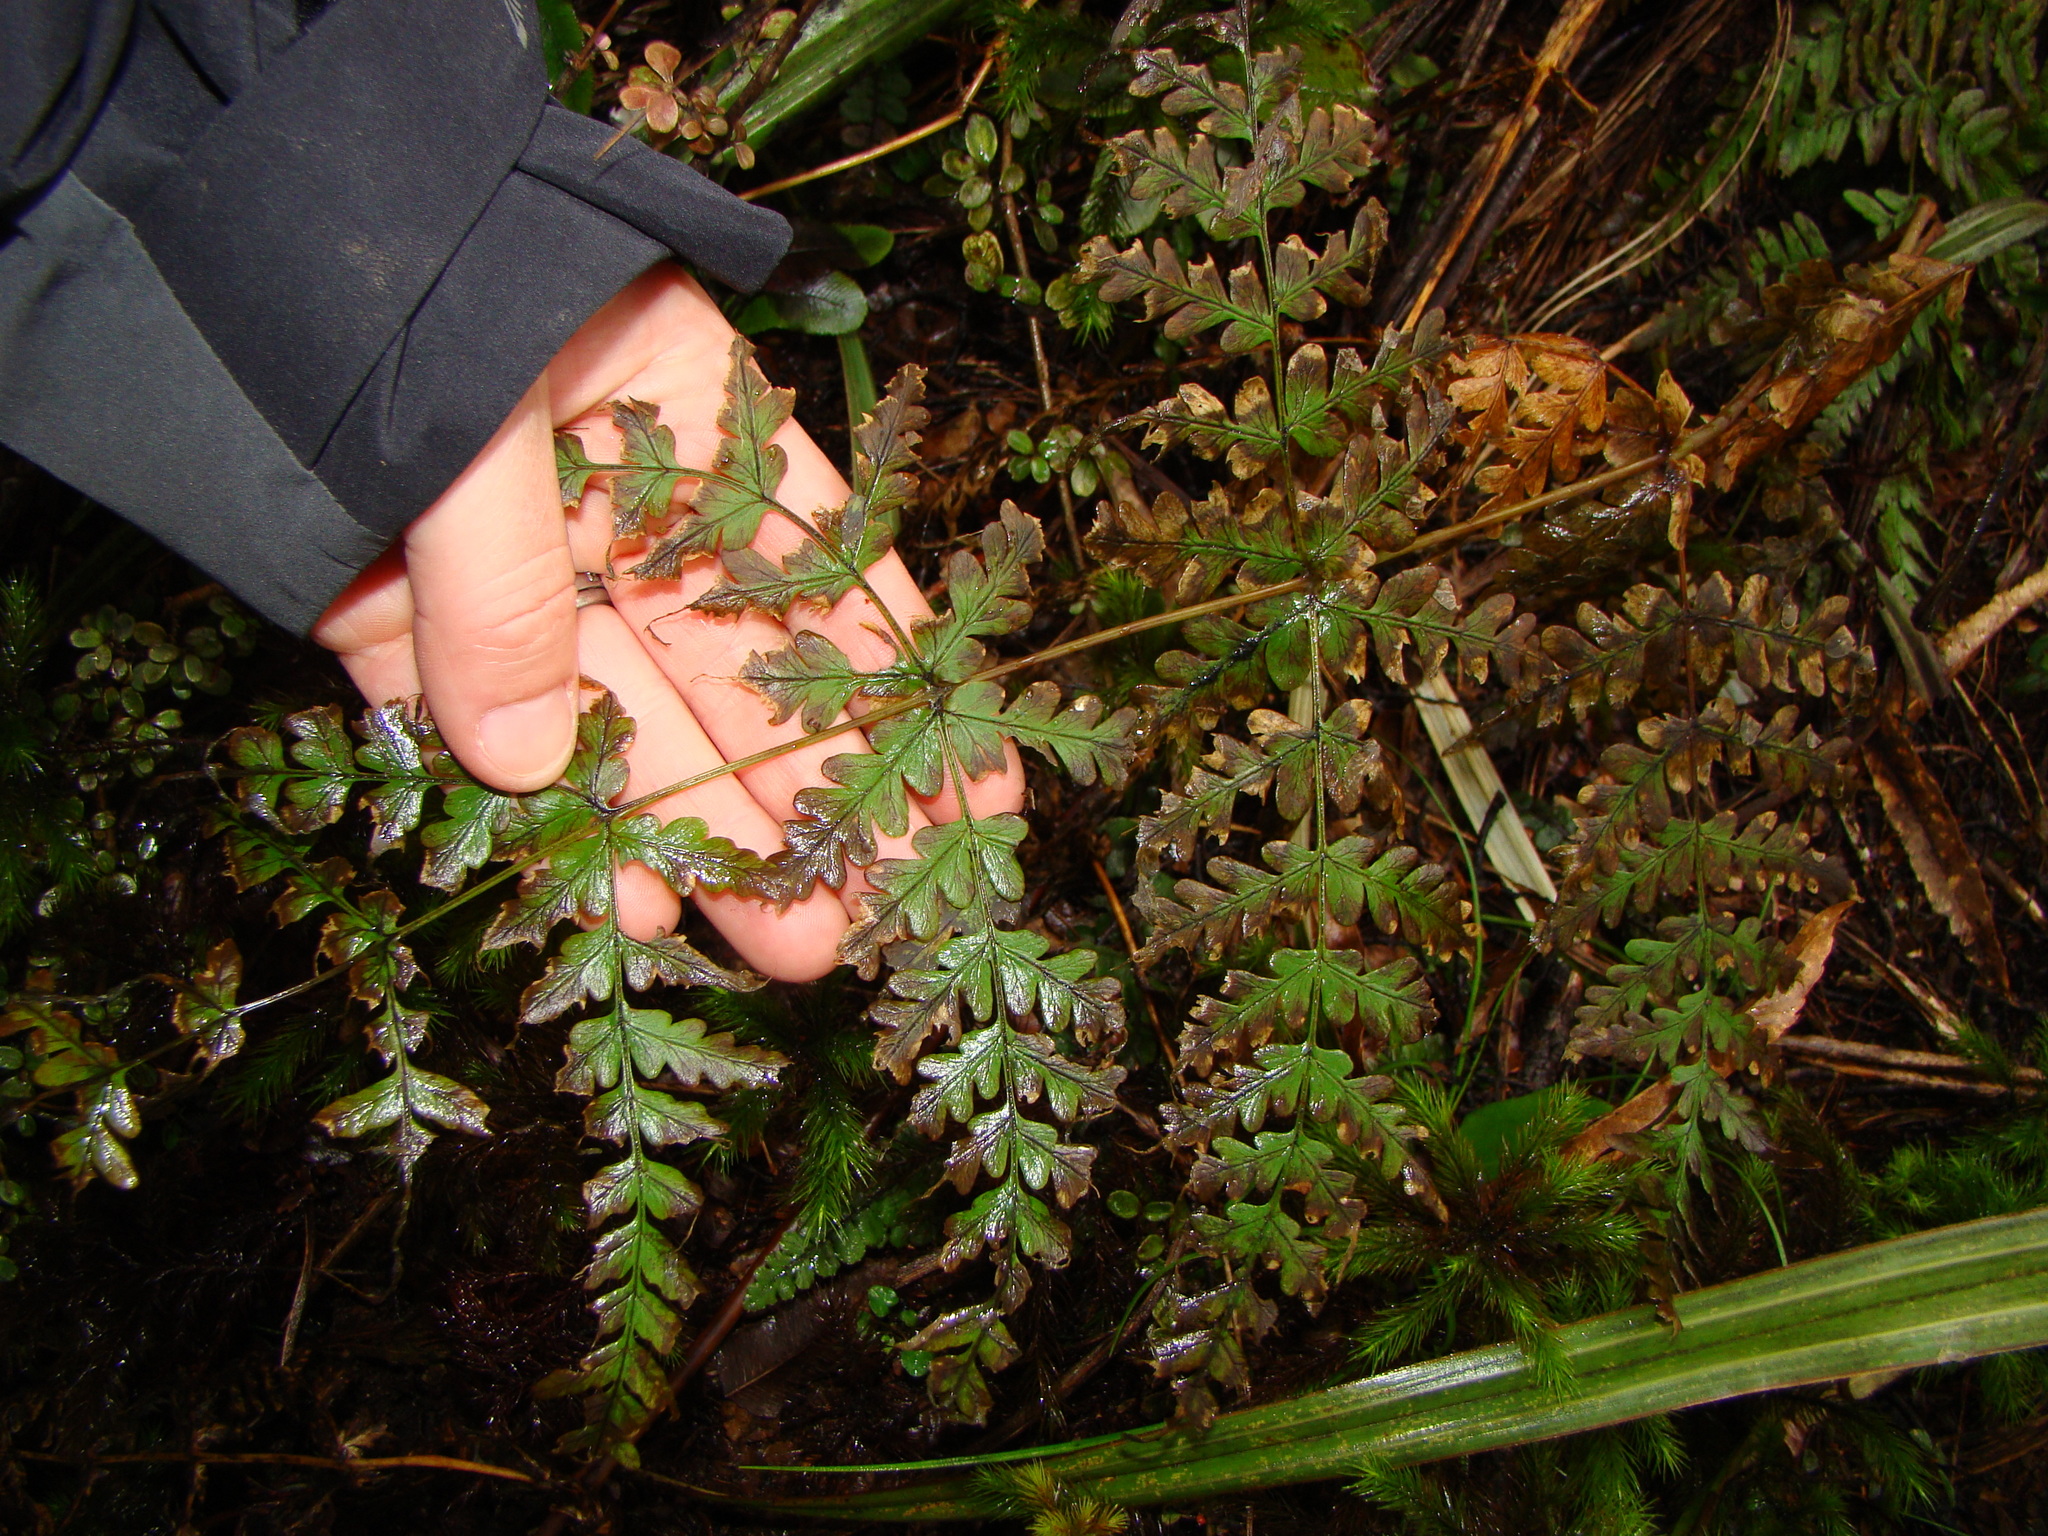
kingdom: Plantae
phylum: Tracheophyta
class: Polypodiopsida
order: Polypodiales
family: Dennstaedtiaceae
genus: Histiopteris
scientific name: Histiopteris incisa
